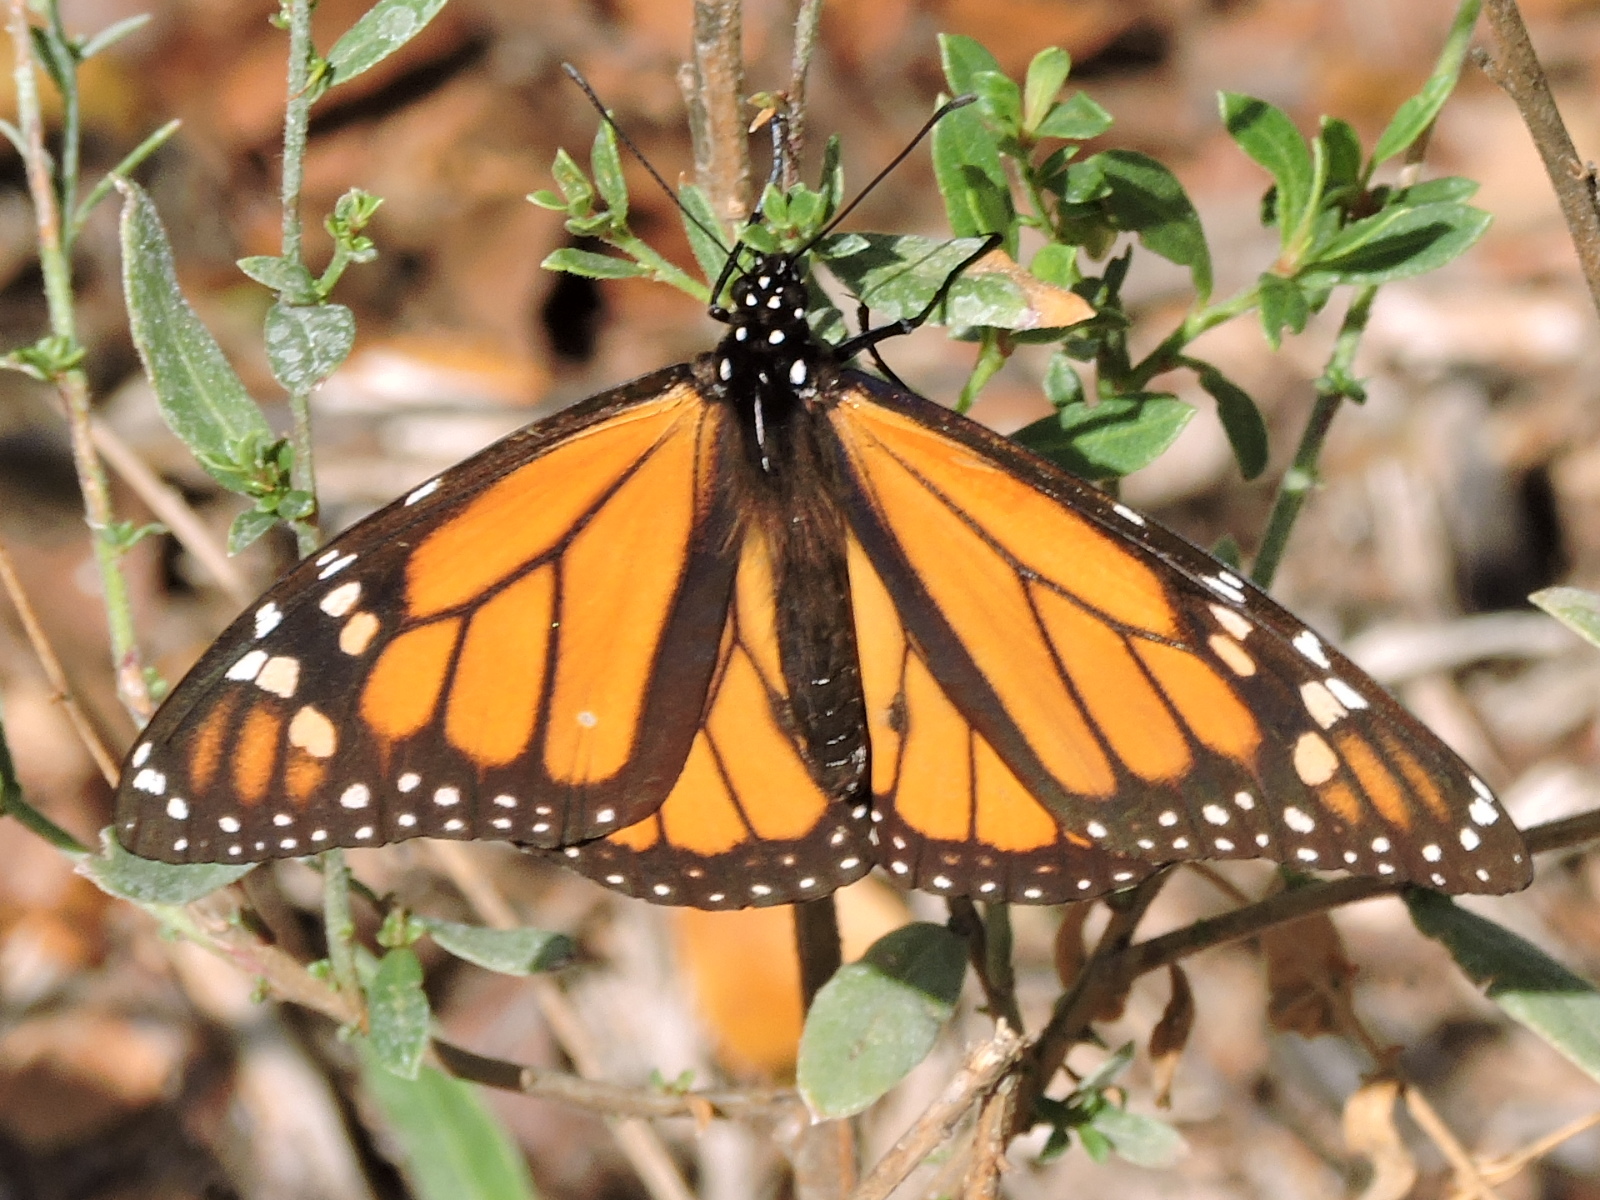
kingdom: Animalia
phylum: Arthropoda
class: Insecta
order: Lepidoptera
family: Nymphalidae
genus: Danaus
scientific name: Danaus plexippus
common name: Monarch
